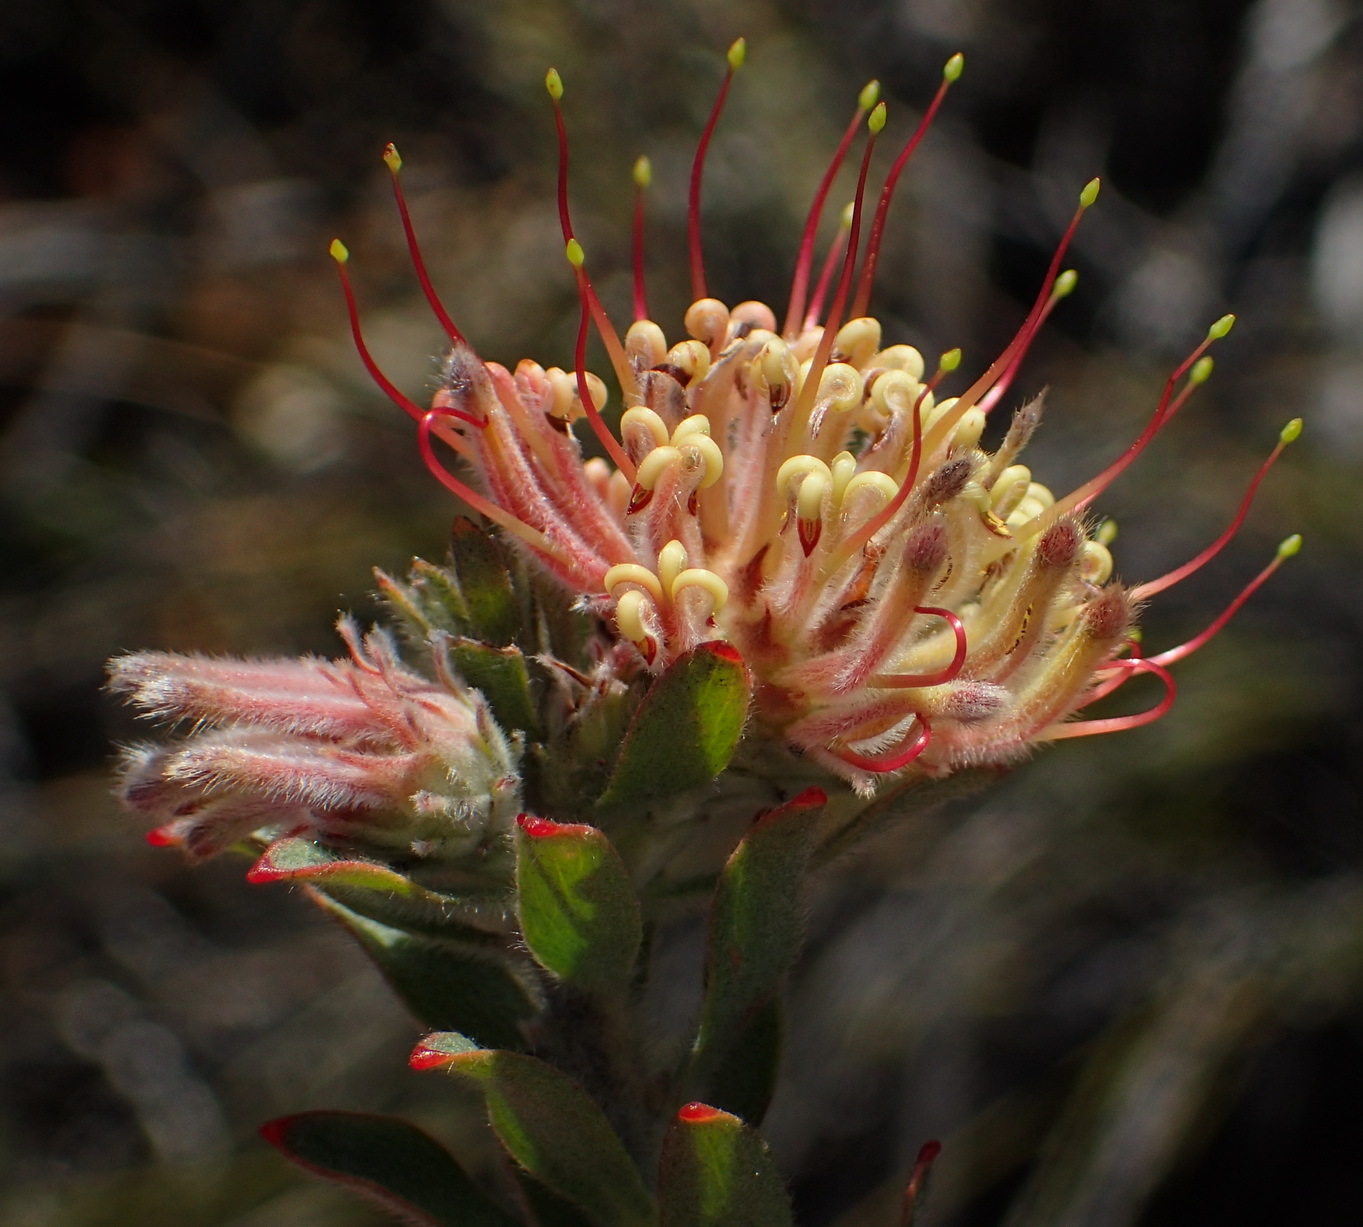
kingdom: Plantae
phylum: Tracheophyta
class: Magnoliopsida
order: Proteales
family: Proteaceae
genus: Leucospermum
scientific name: Leucospermum calligerum
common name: Arid pincushion
